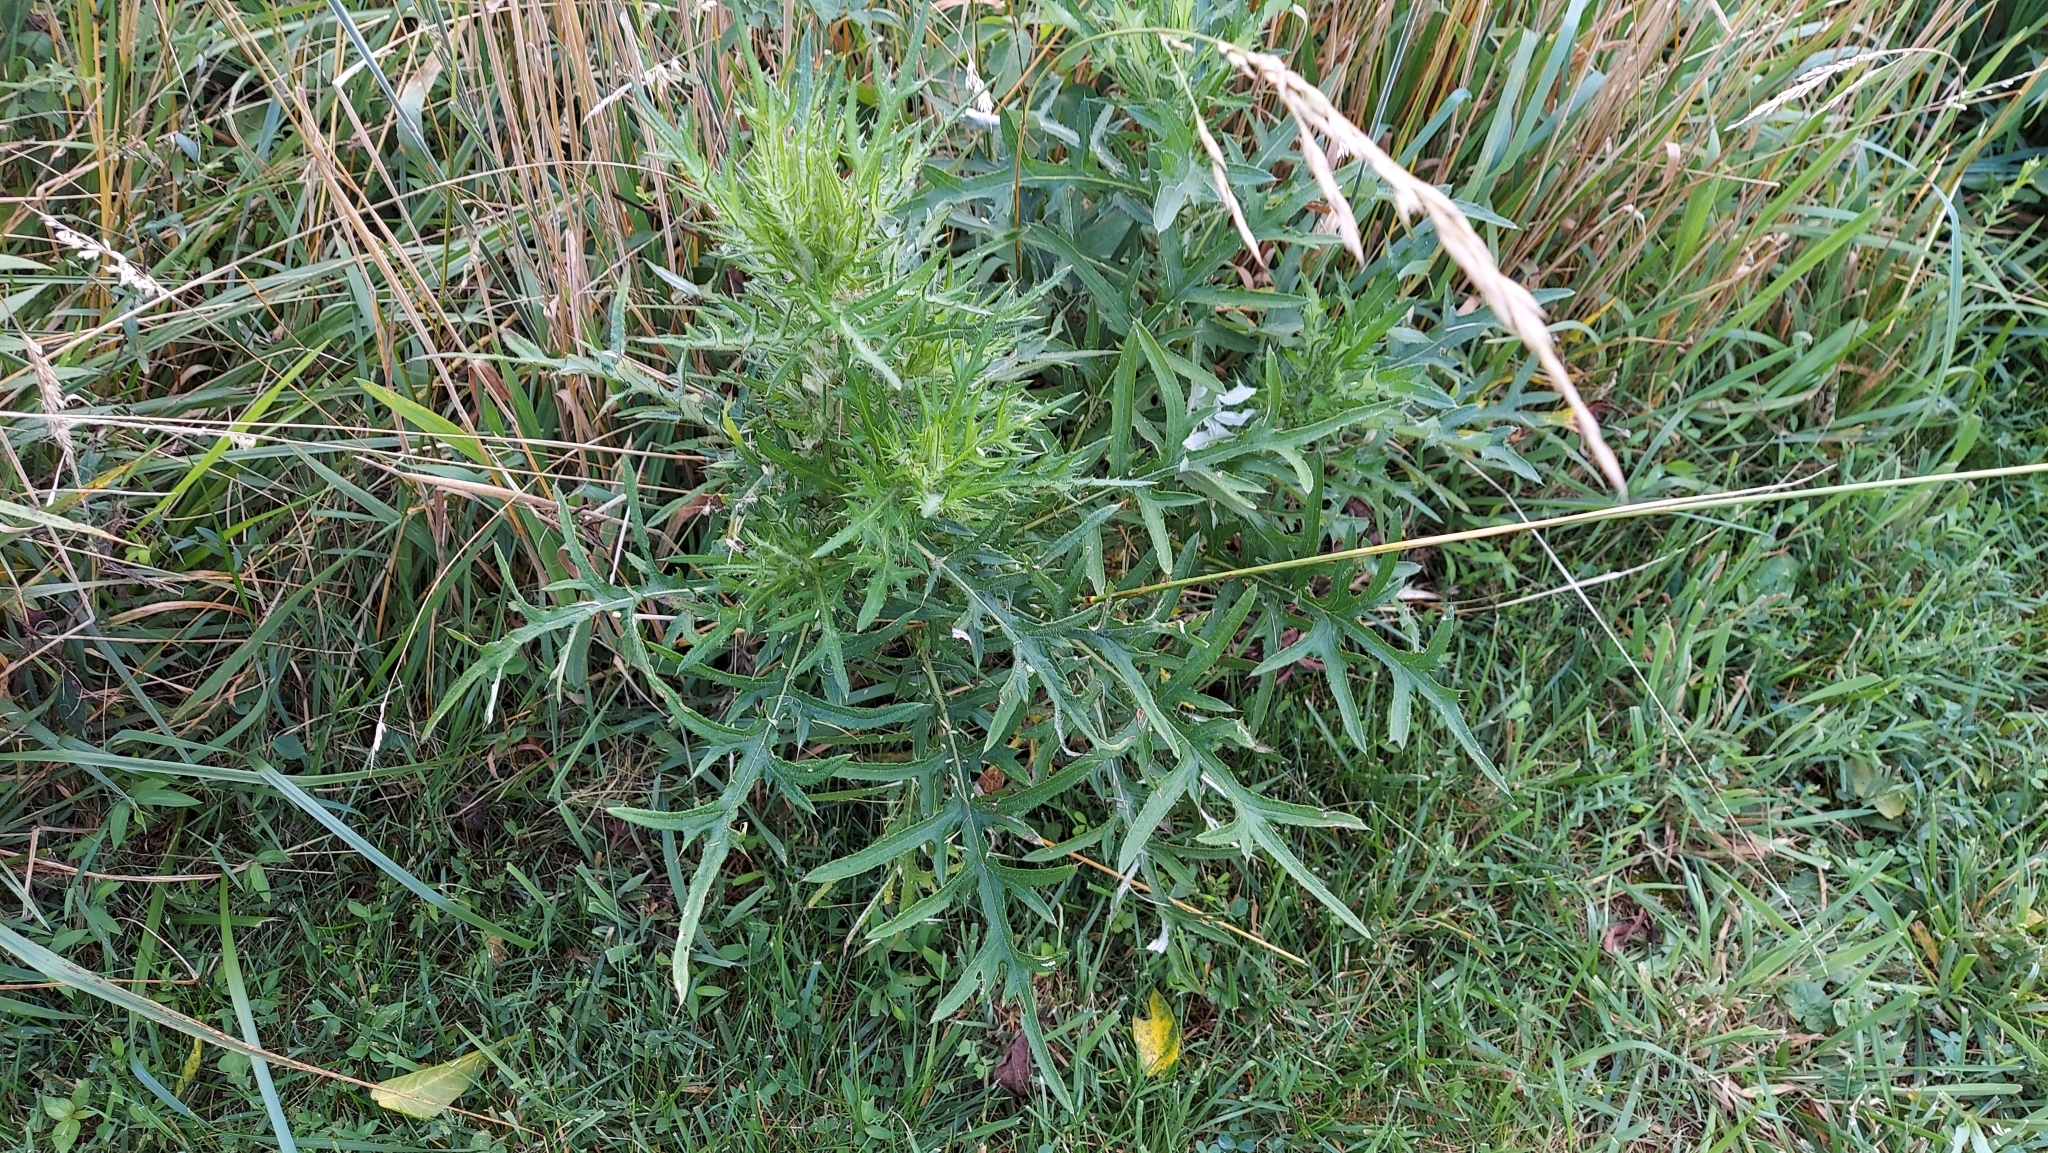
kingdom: Plantae
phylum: Tracheophyta
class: Magnoliopsida
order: Asterales
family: Asteraceae
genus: Cirsium
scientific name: Cirsium discolor
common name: Field thistle
